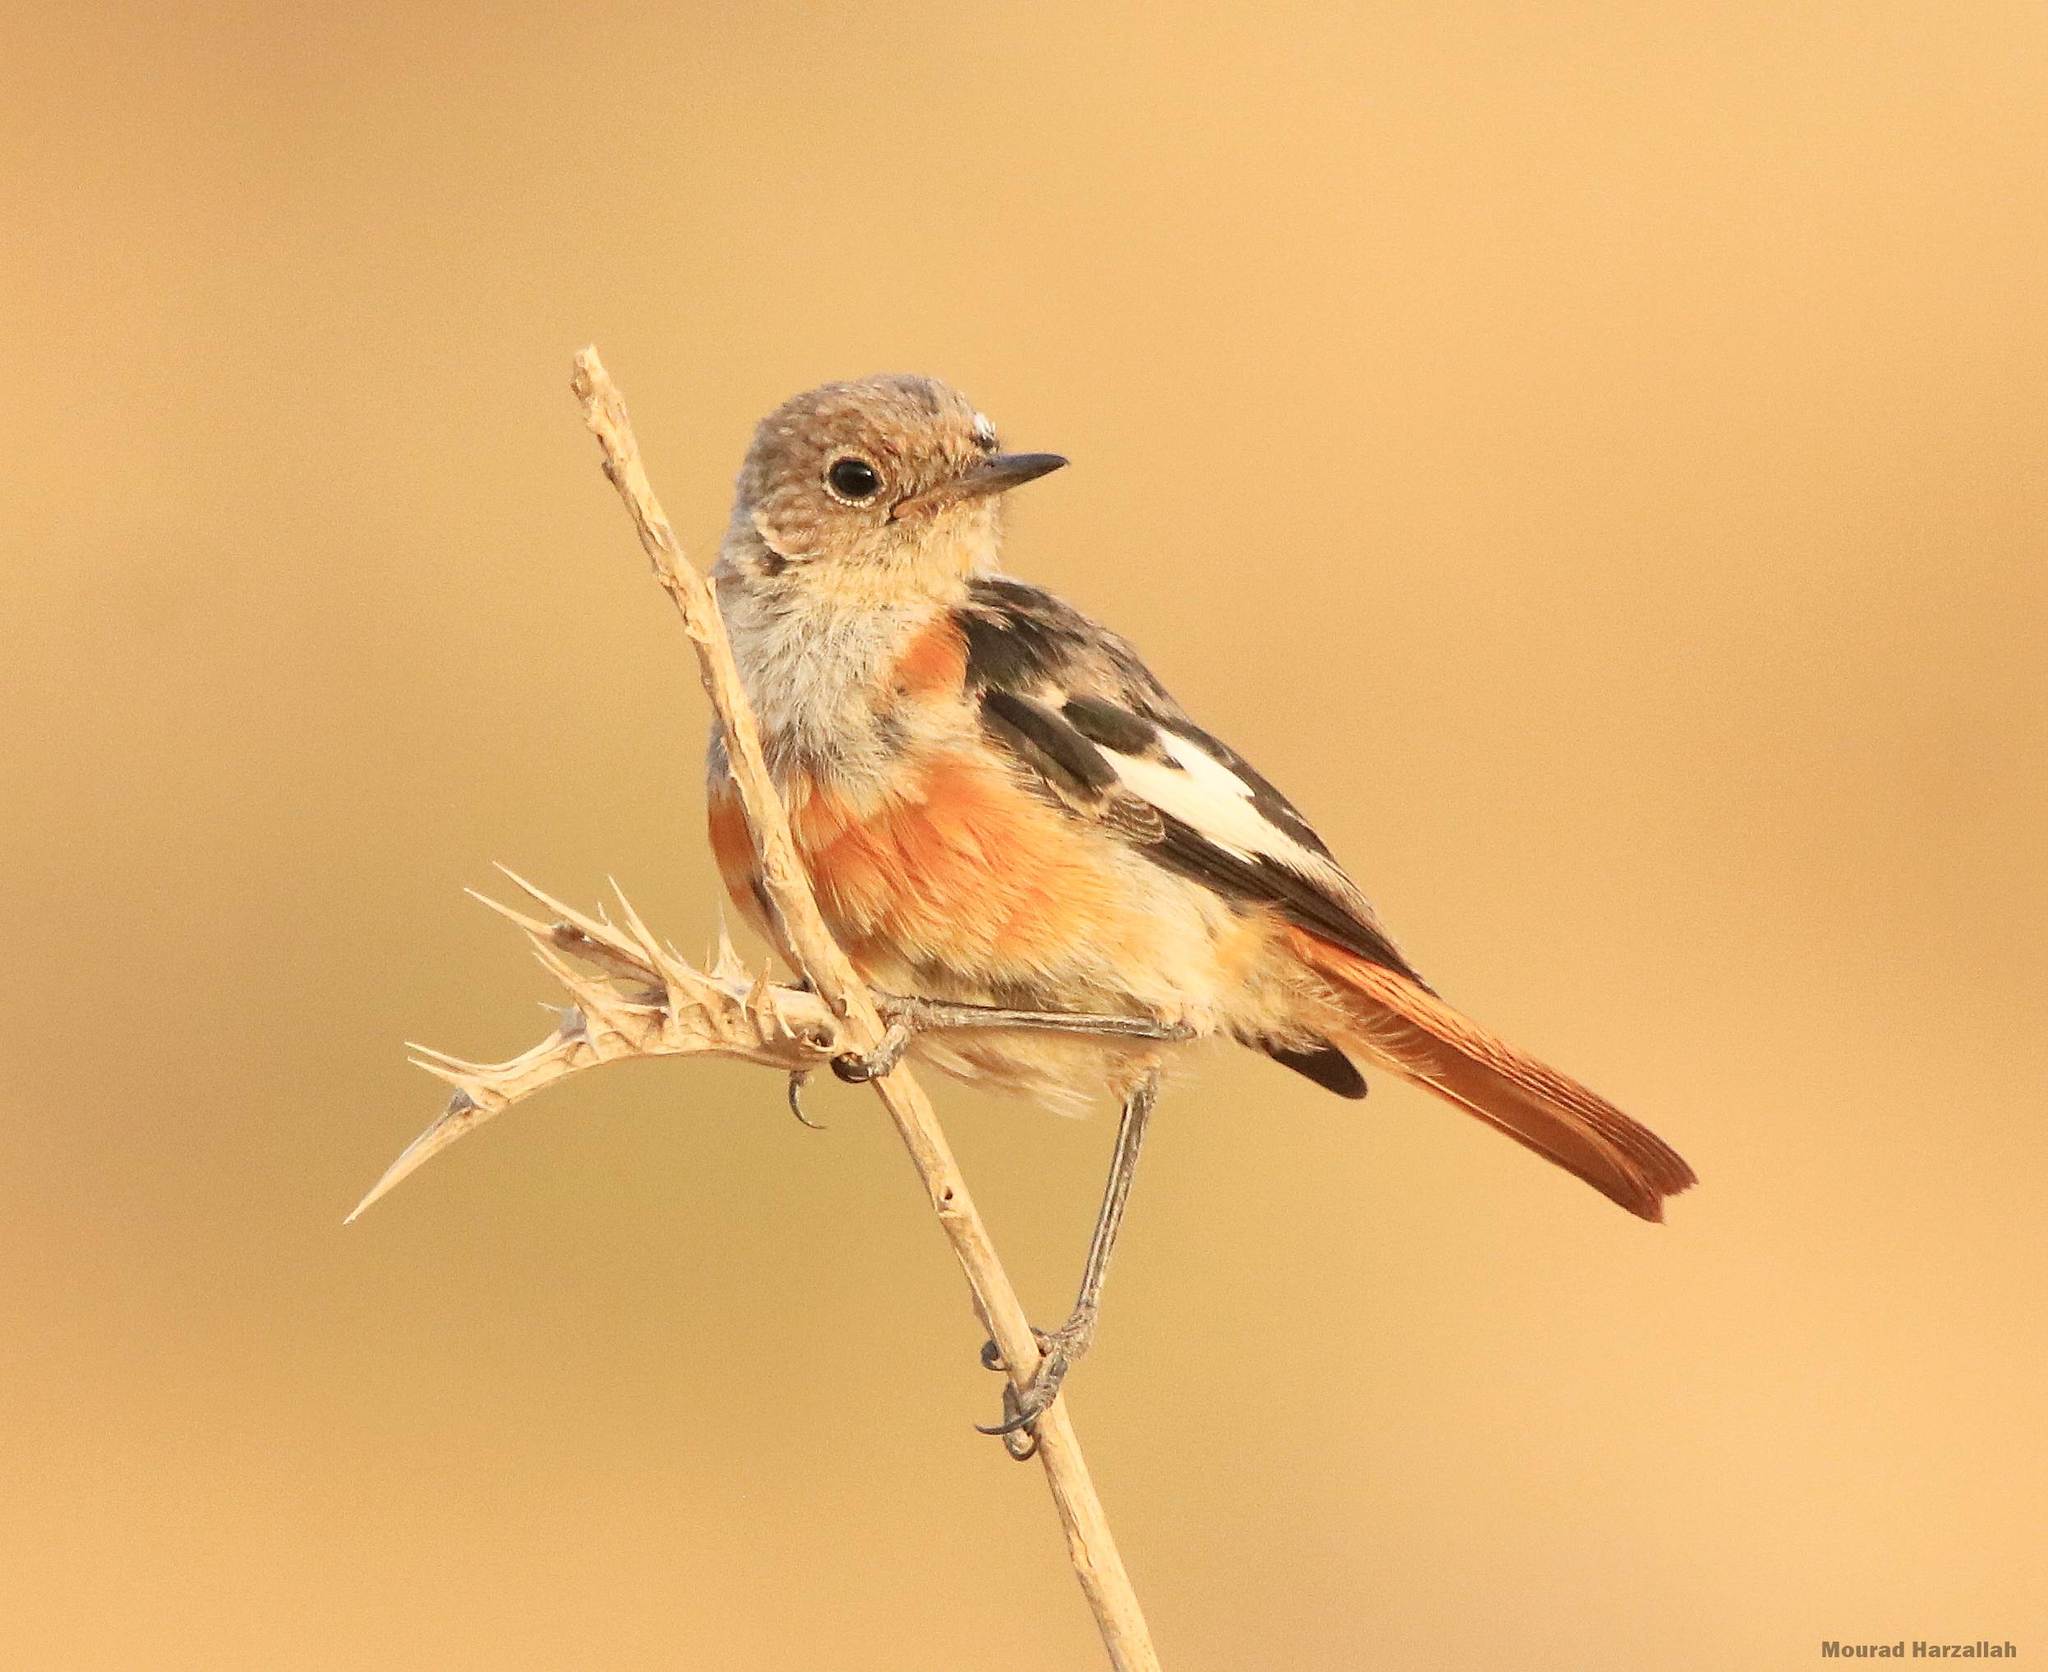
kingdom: Animalia
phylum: Chordata
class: Aves
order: Passeriformes
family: Muscicapidae
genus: Phoenicurus
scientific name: Phoenicurus moussieri
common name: Moussier's redstart
